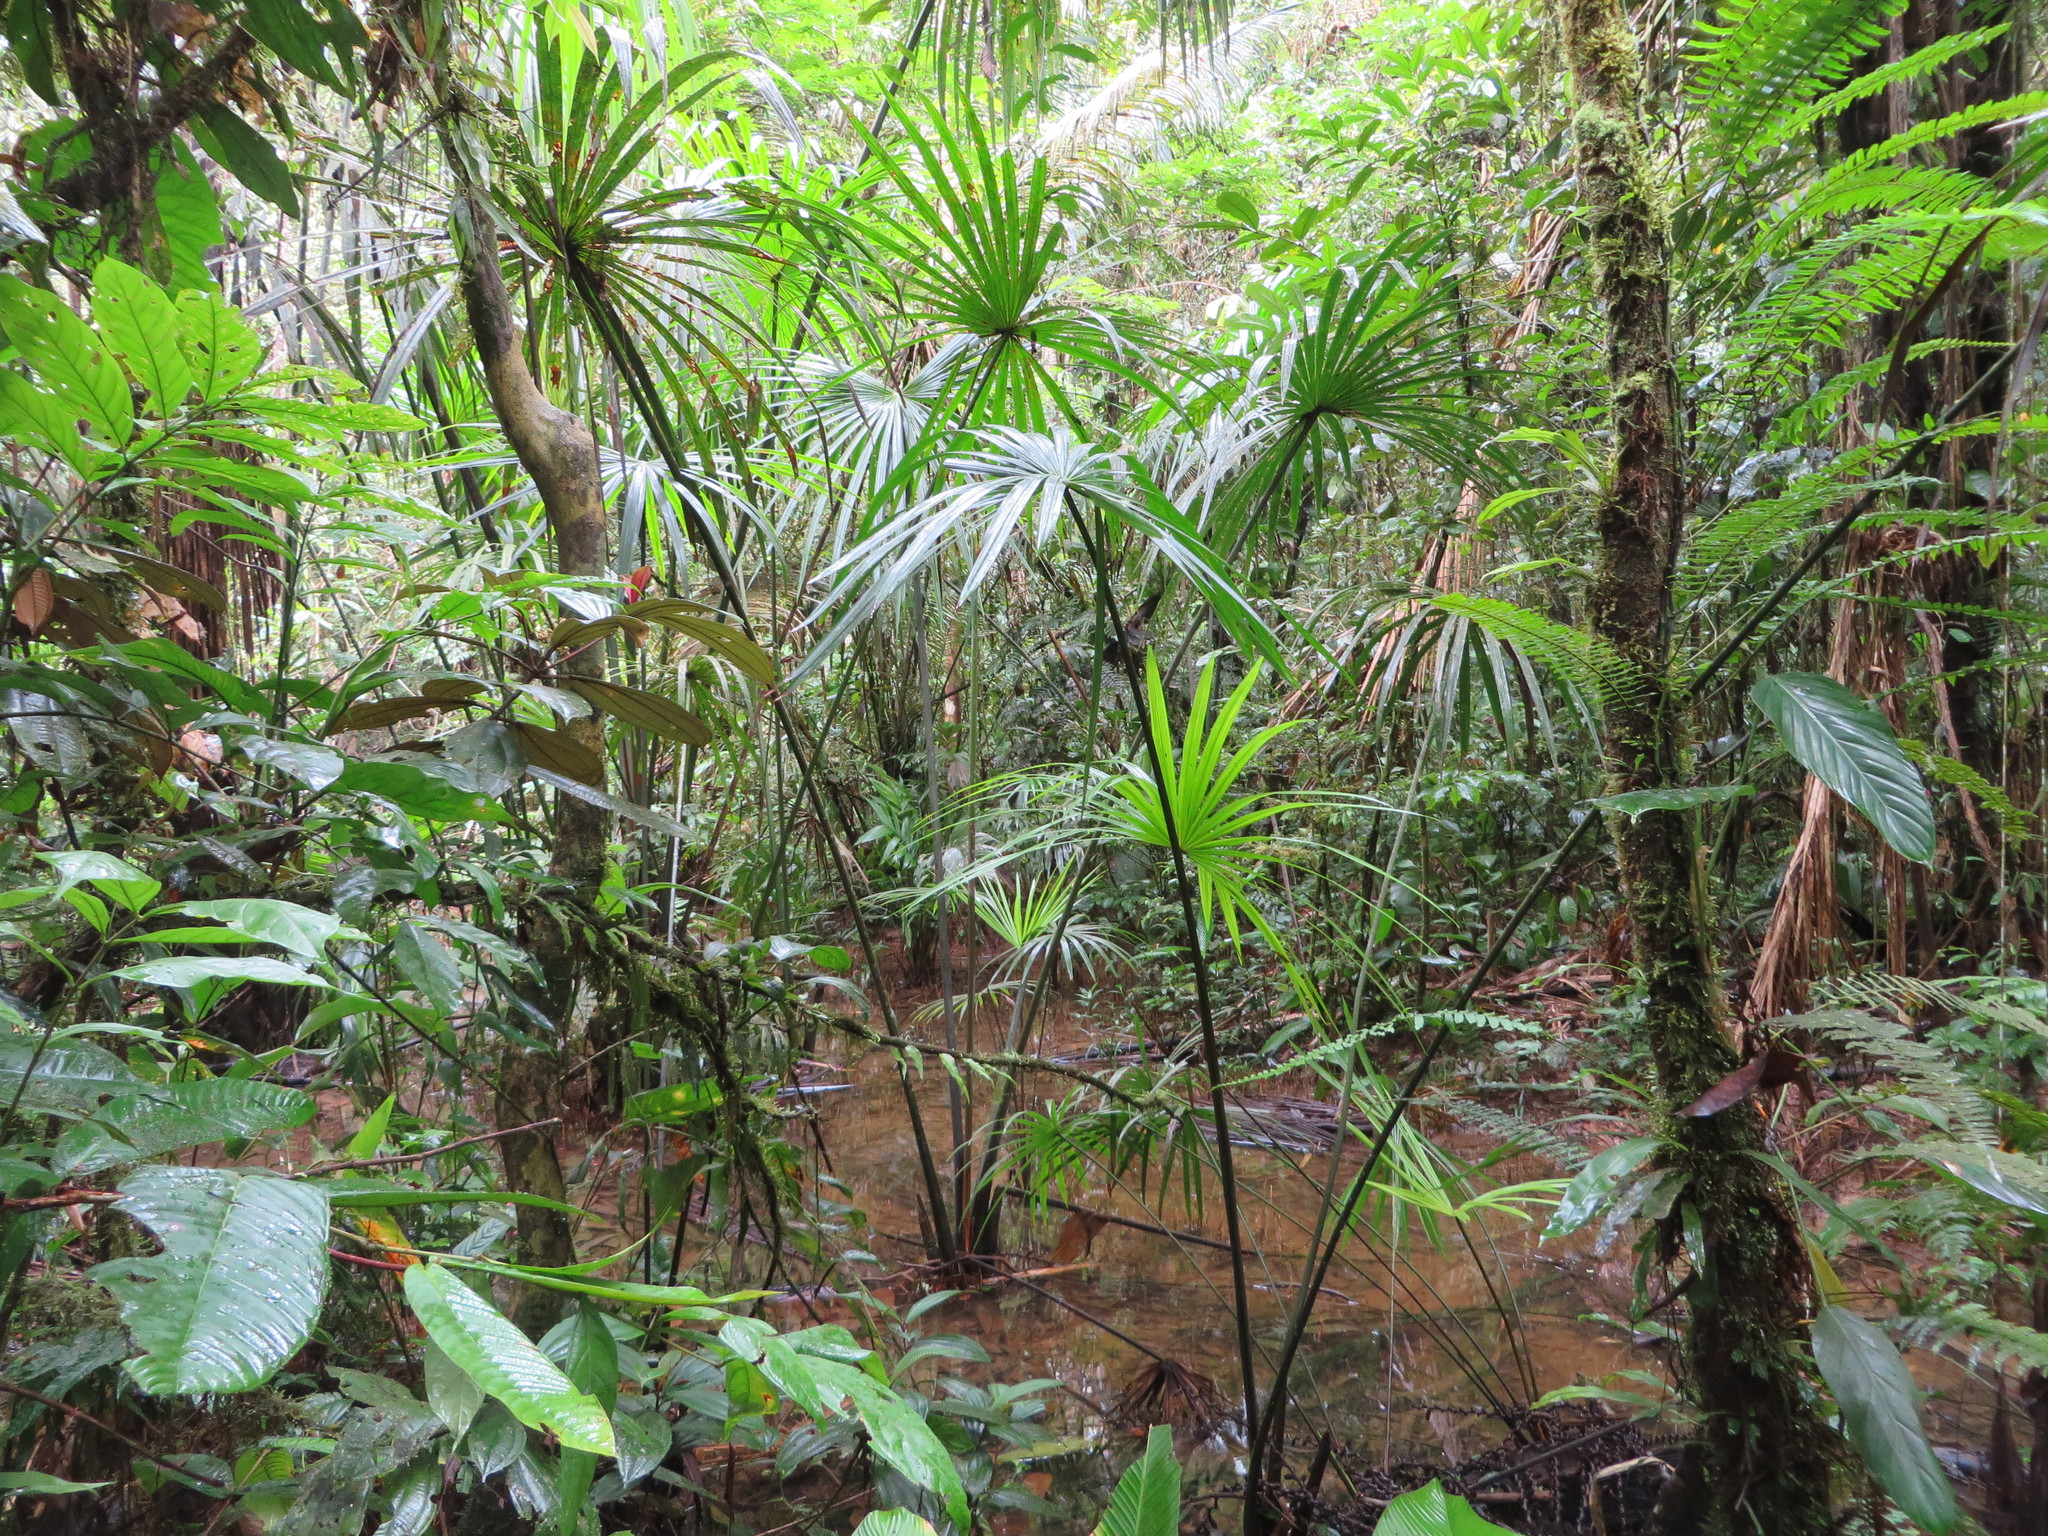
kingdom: Plantae
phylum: Tracheophyta
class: Liliopsida
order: Arecales
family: Arecaceae
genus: Mauritia
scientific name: Mauritia flexuosa
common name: Tree-of-life
